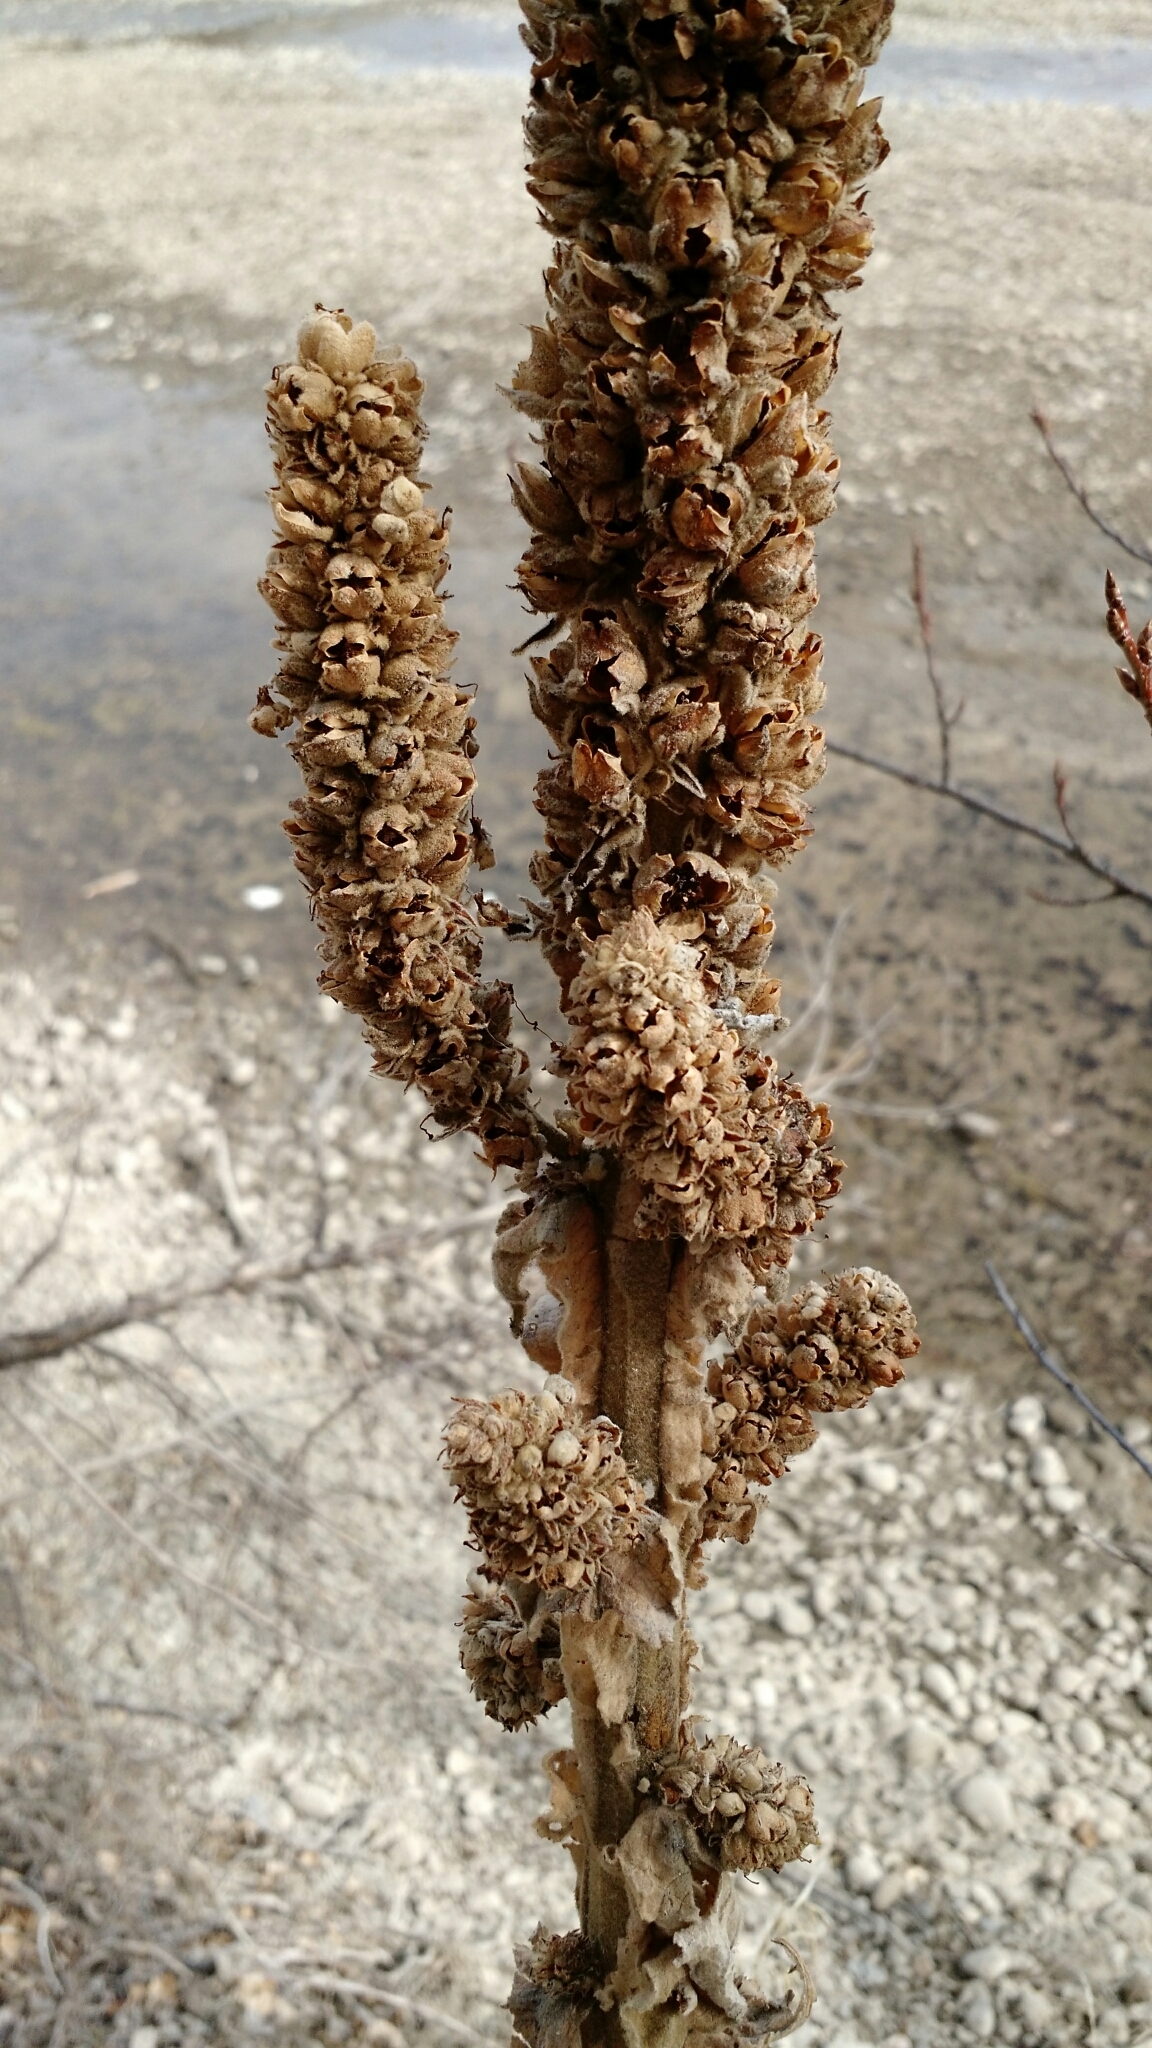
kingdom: Plantae
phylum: Tracheophyta
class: Magnoliopsida
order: Lamiales
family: Scrophulariaceae
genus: Verbascum
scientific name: Verbascum thapsus
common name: Common mullein
